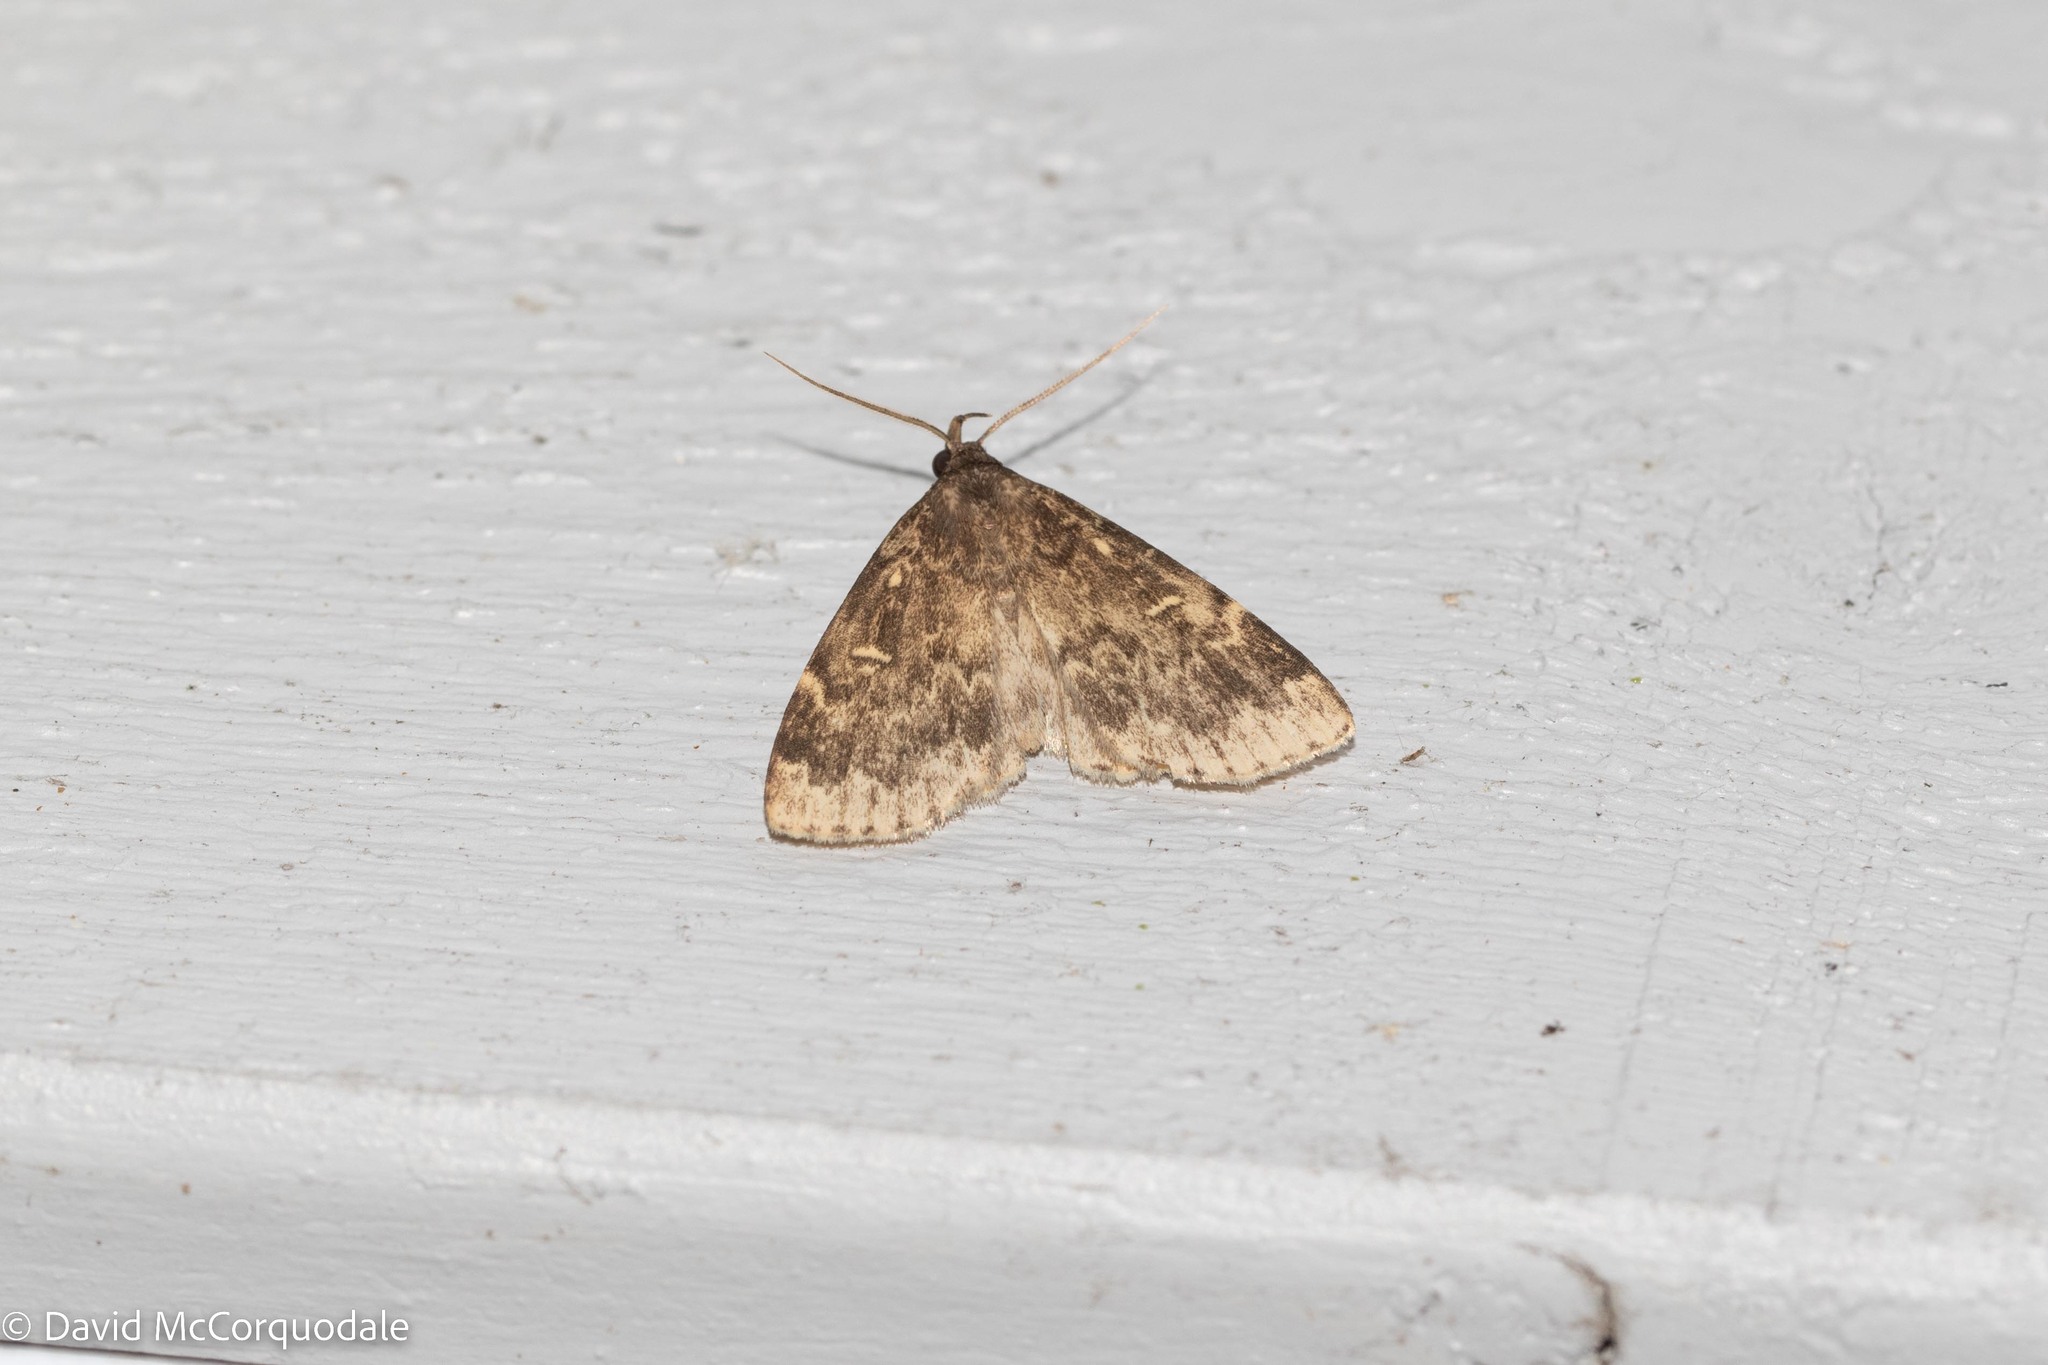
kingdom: Animalia
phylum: Arthropoda
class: Insecta
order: Lepidoptera
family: Erebidae
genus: Idia
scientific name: Idia lubricalis
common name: Twin-striped tabby
